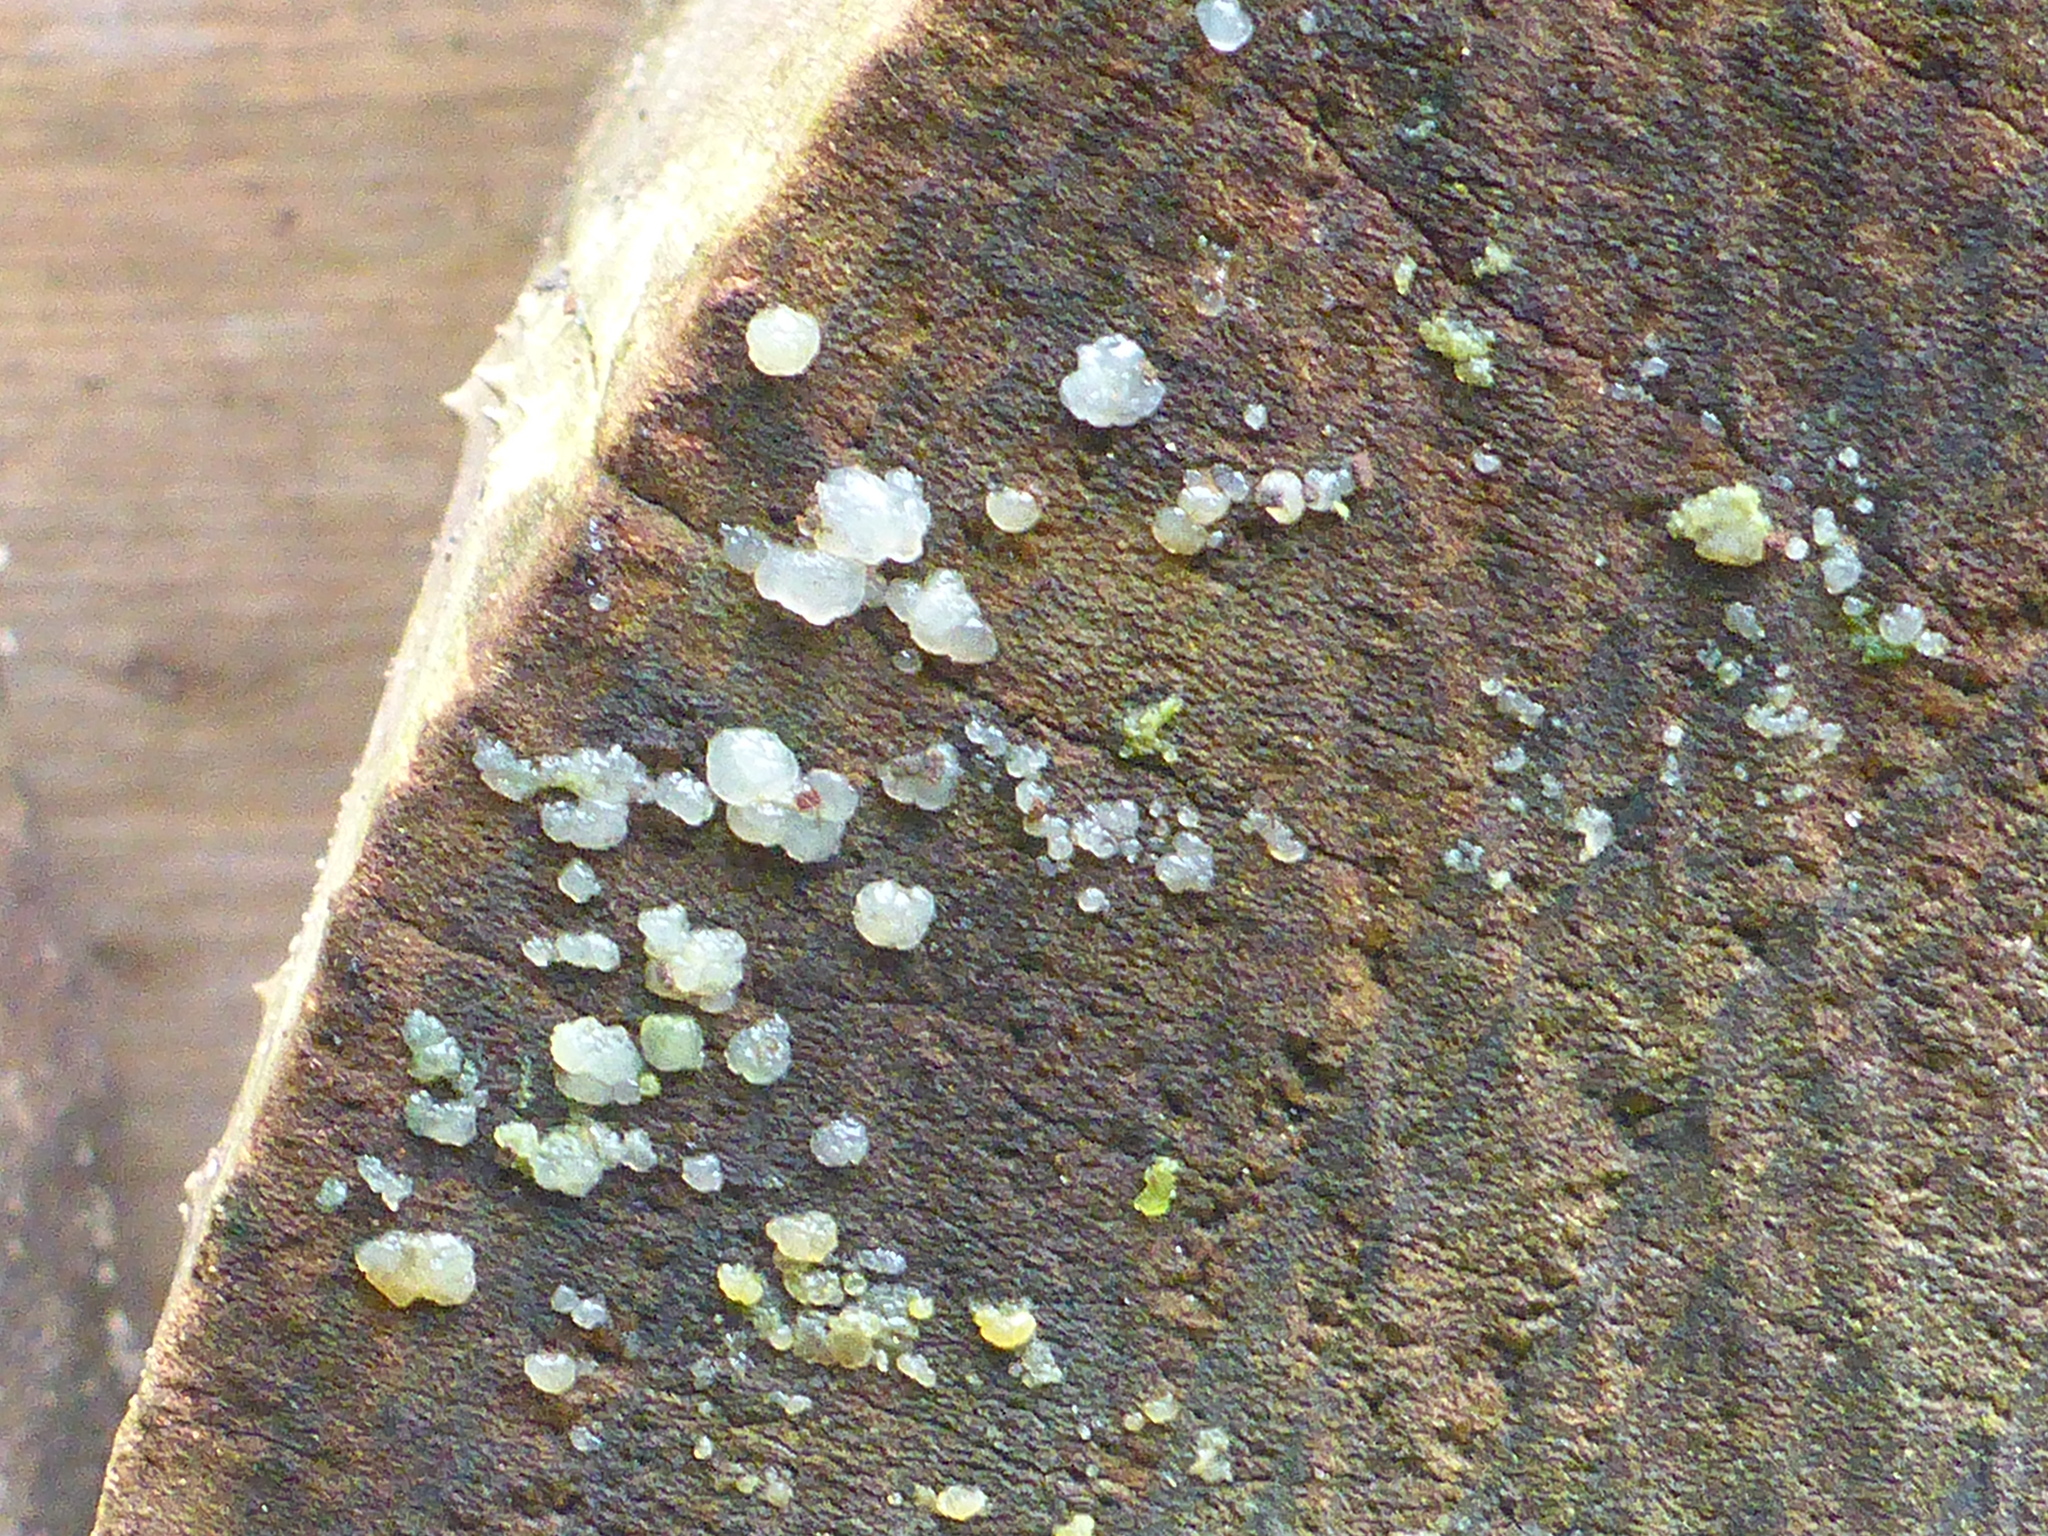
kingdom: Fungi
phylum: Basidiomycota
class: Agaricomycetes
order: Auriculariales
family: Hyaloriaceae
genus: Myxarium
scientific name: Myxarium nucleatum
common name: Crystal brain fungus
